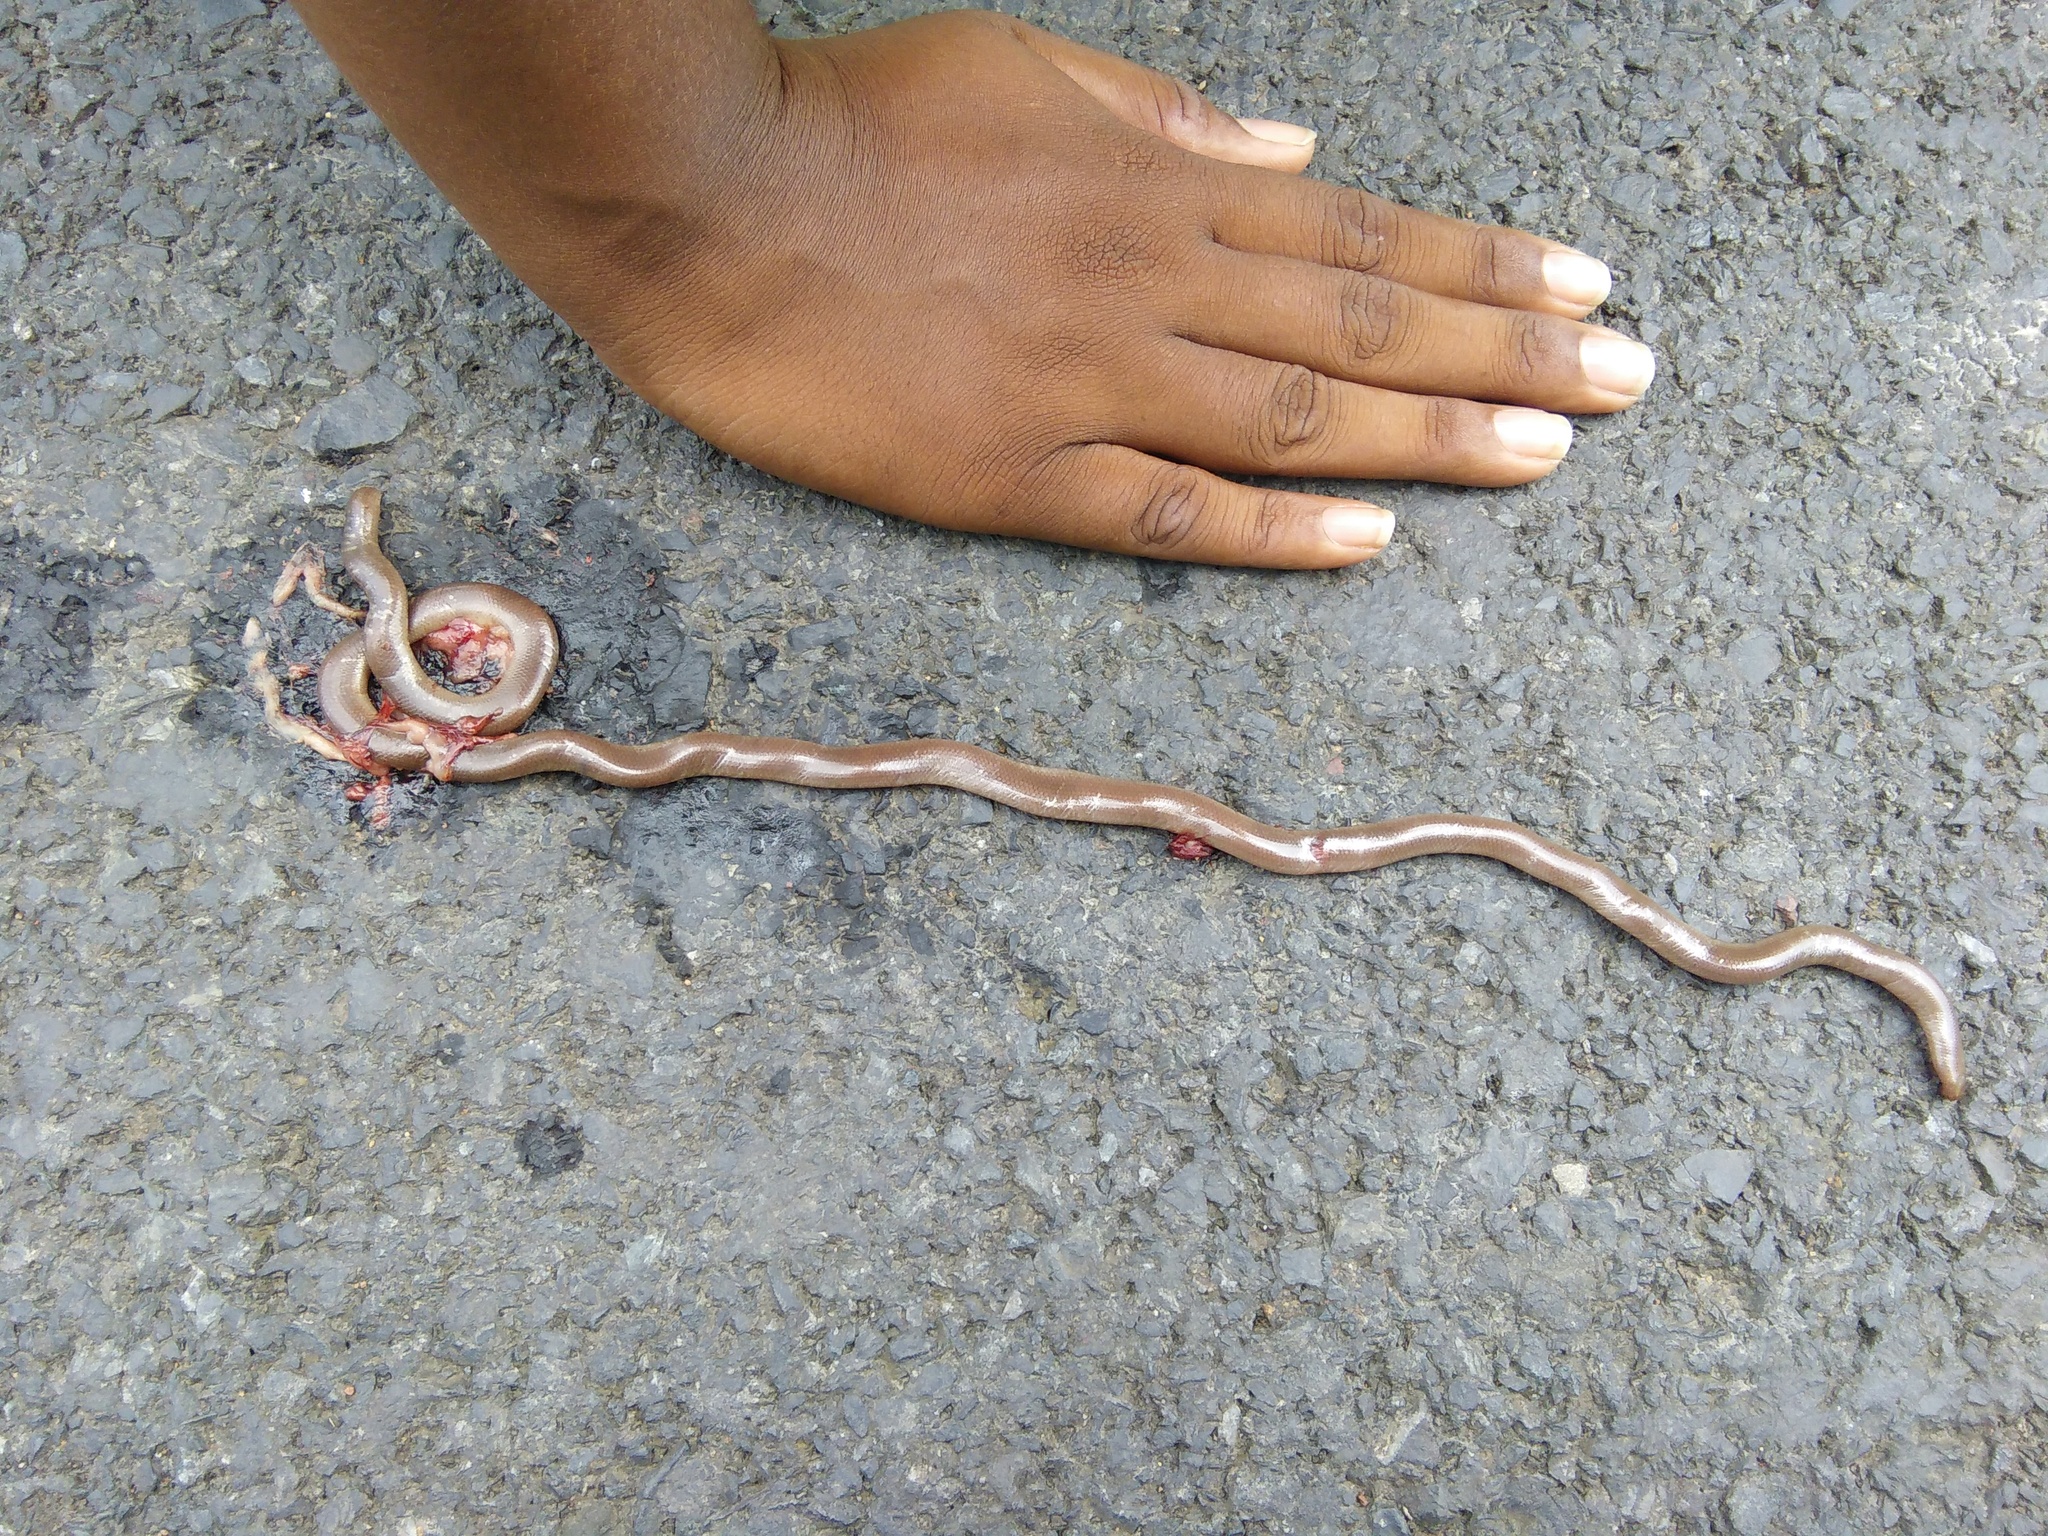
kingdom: Animalia
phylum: Chordata
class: Squamata
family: Typhlopidae
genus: Grypotyphlops
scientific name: Grypotyphlops acutus
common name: Beaked blind snake
